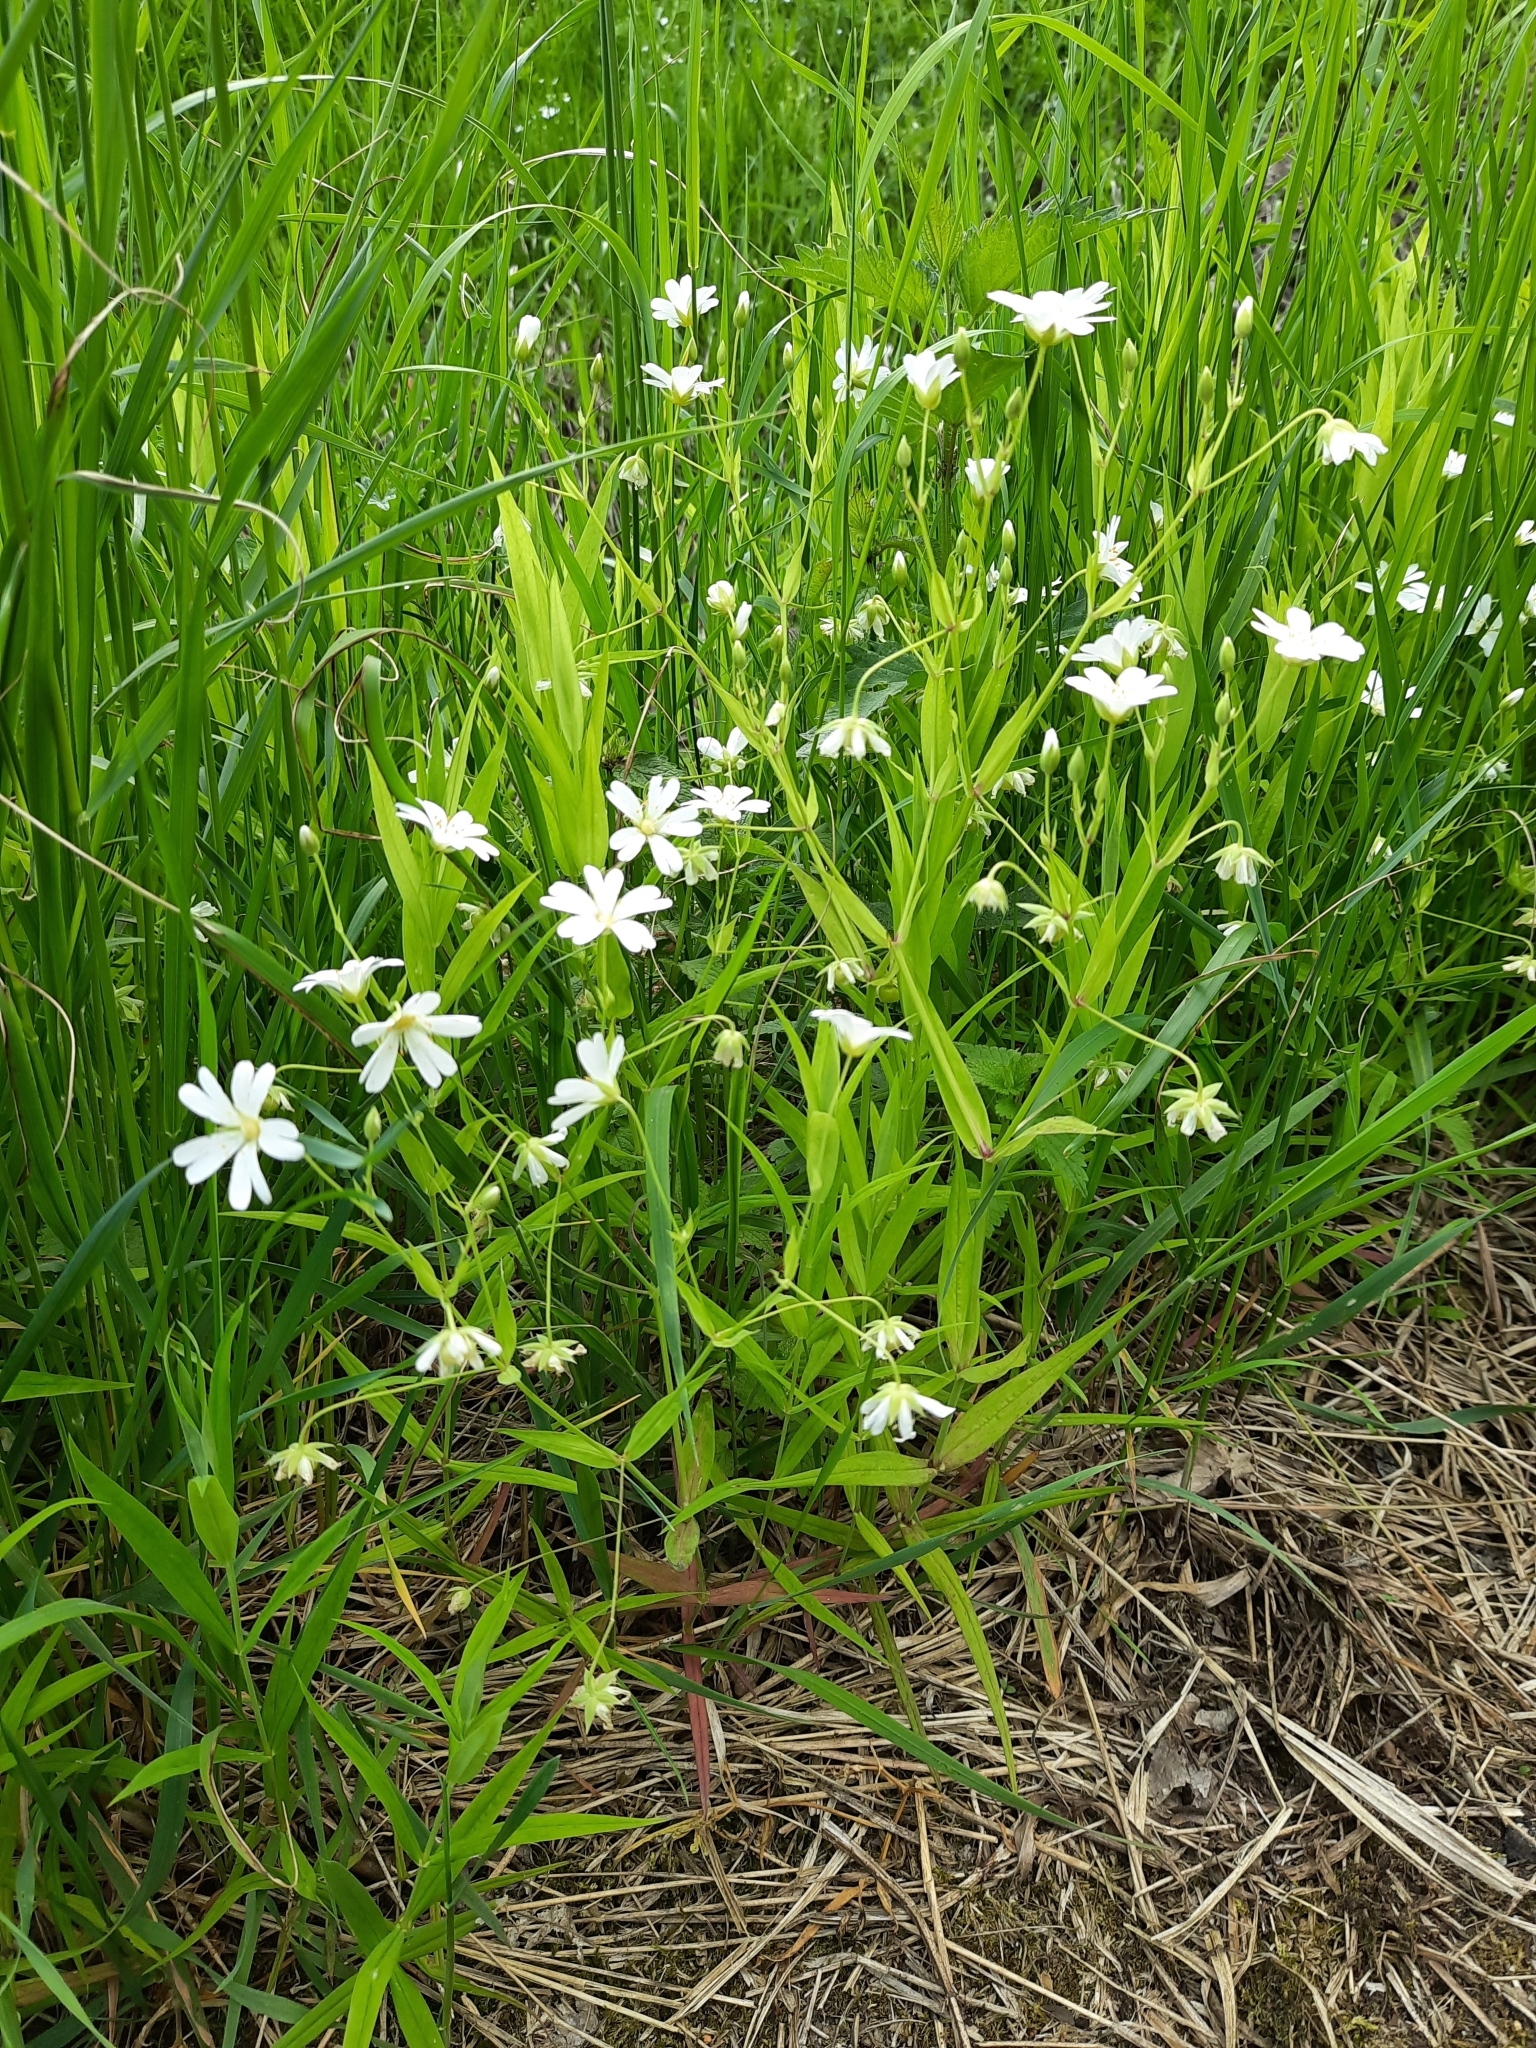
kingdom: Plantae
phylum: Tracheophyta
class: Magnoliopsida
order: Caryophyllales
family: Caryophyllaceae
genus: Rabelera
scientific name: Rabelera holostea
